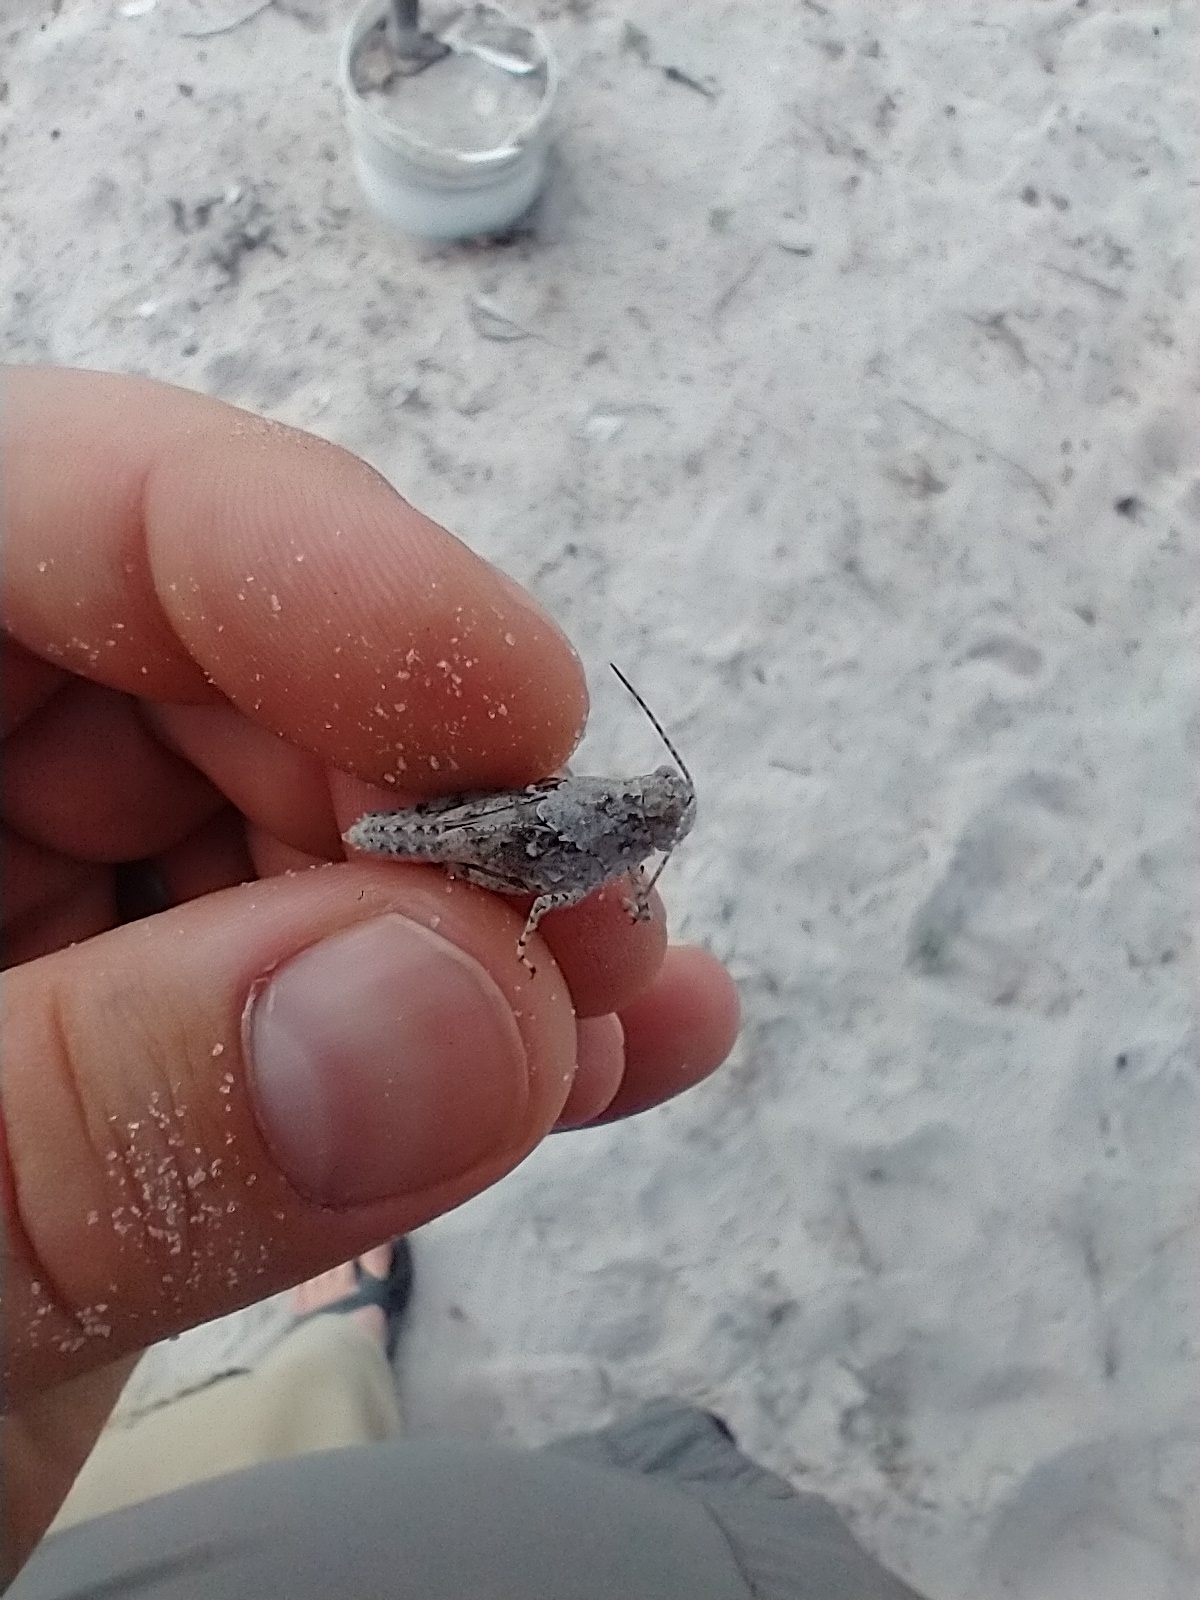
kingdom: Animalia
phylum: Arthropoda
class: Insecta
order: Orthoptera
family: Acrididae
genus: Trimerotropis
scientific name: Trimerotropis maritima
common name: Seaside locust
